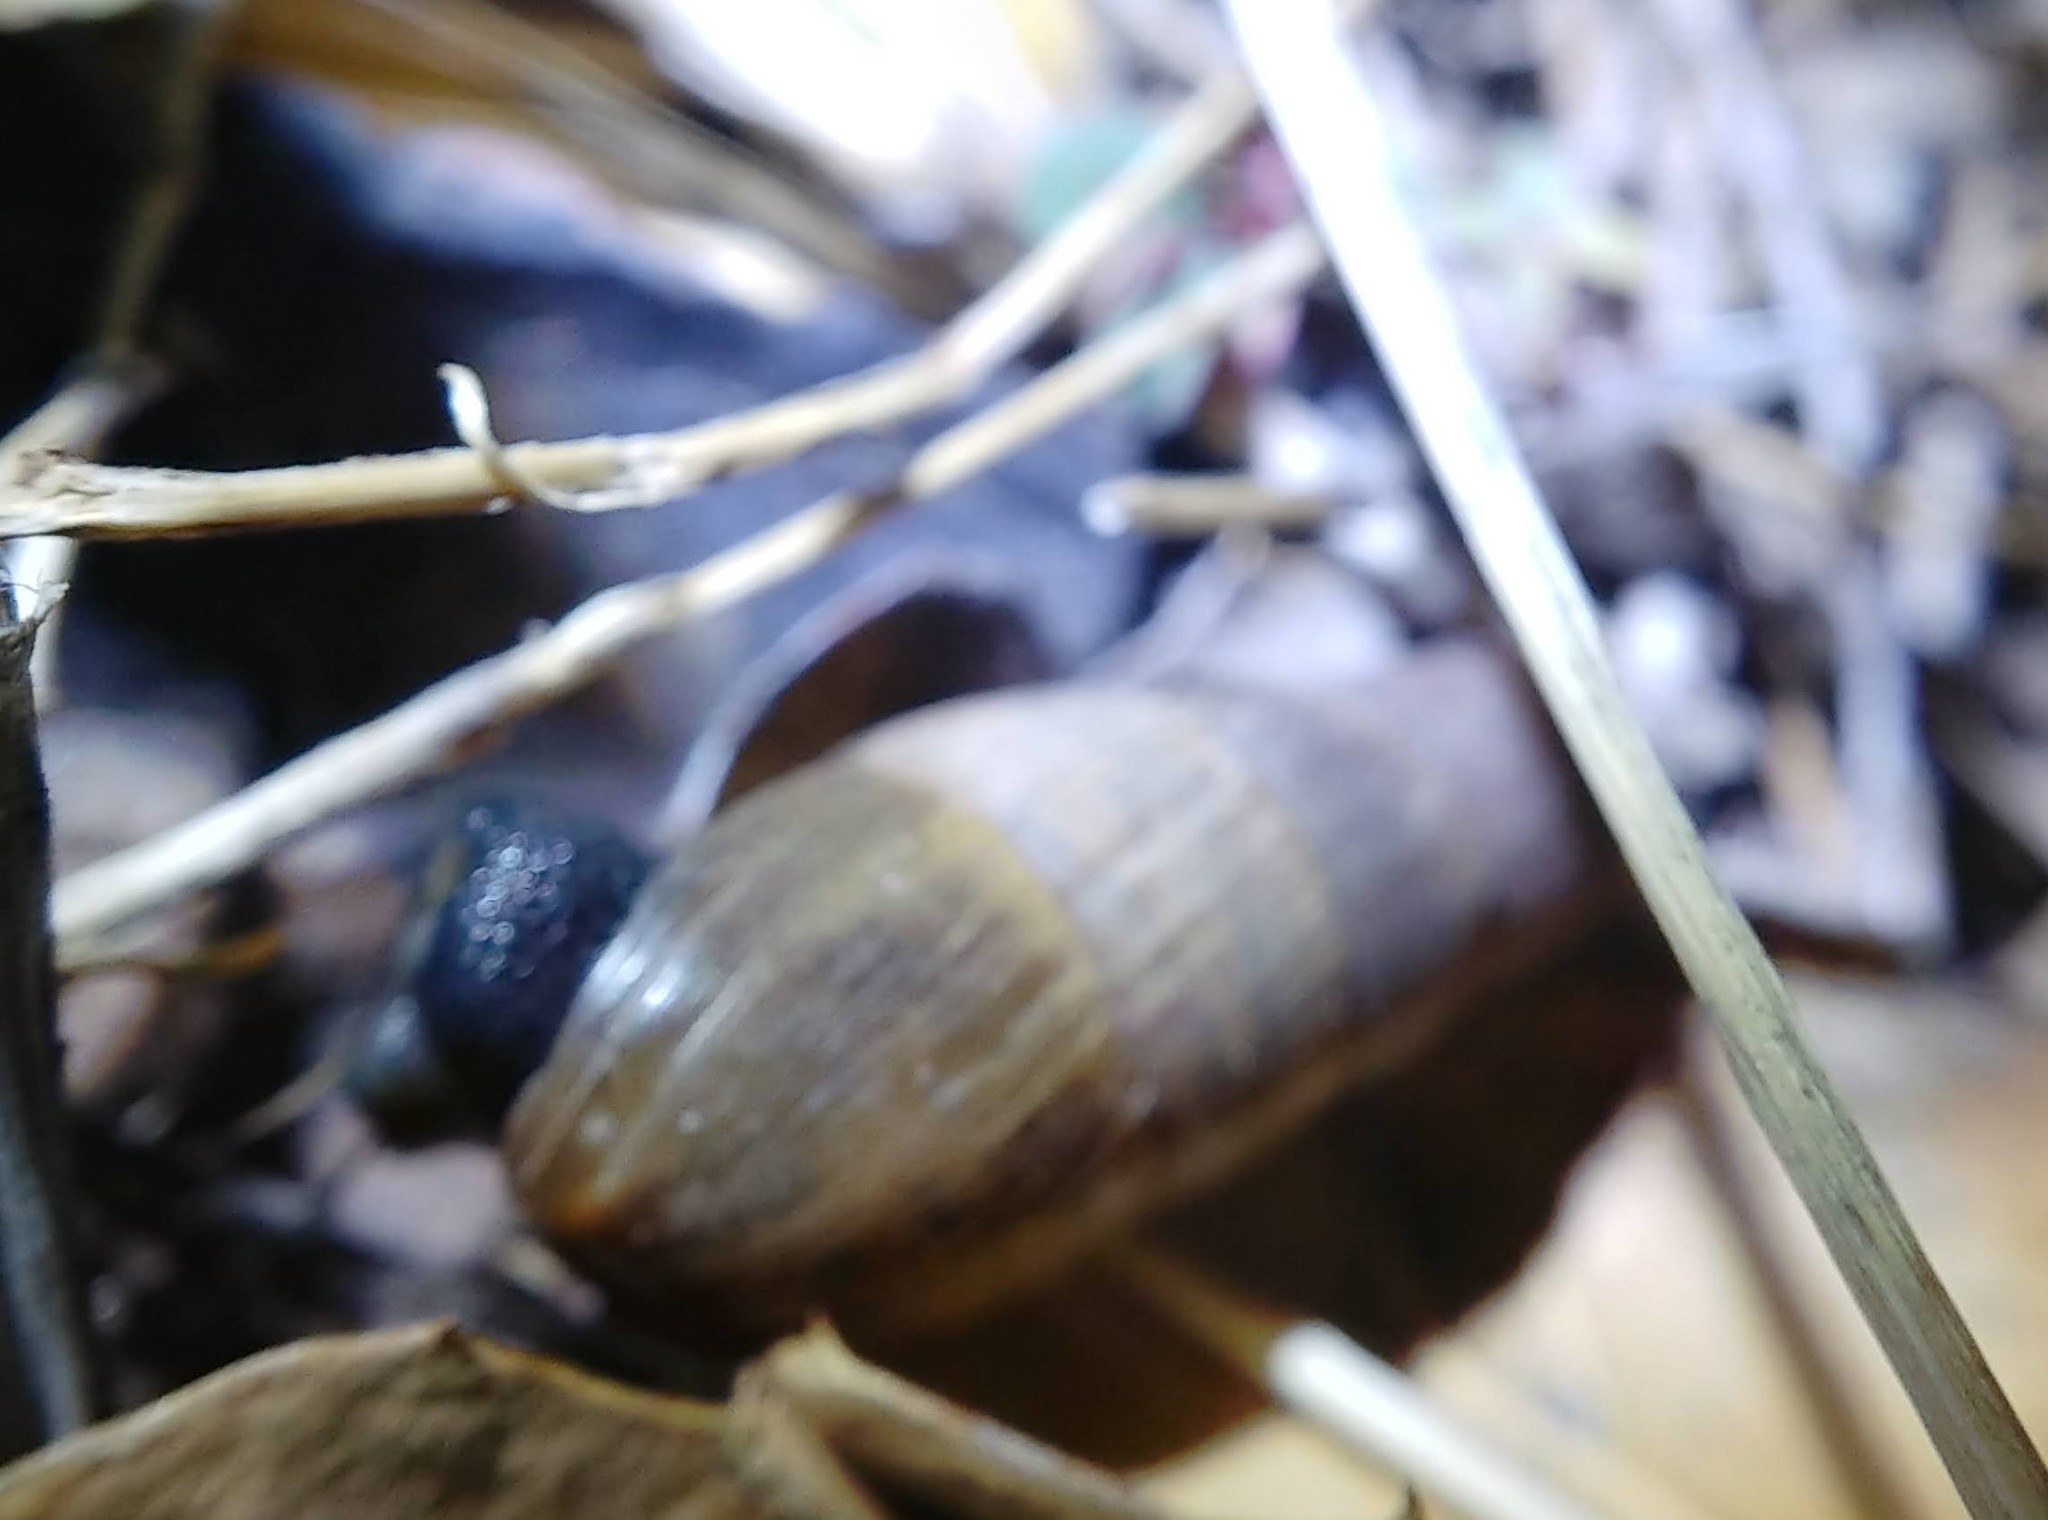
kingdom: Animalia
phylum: Mollusca
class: Gastropoda
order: Stylommatophora
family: Achatinidae
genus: Rumina
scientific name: Rumina decollata
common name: Decollate snail
